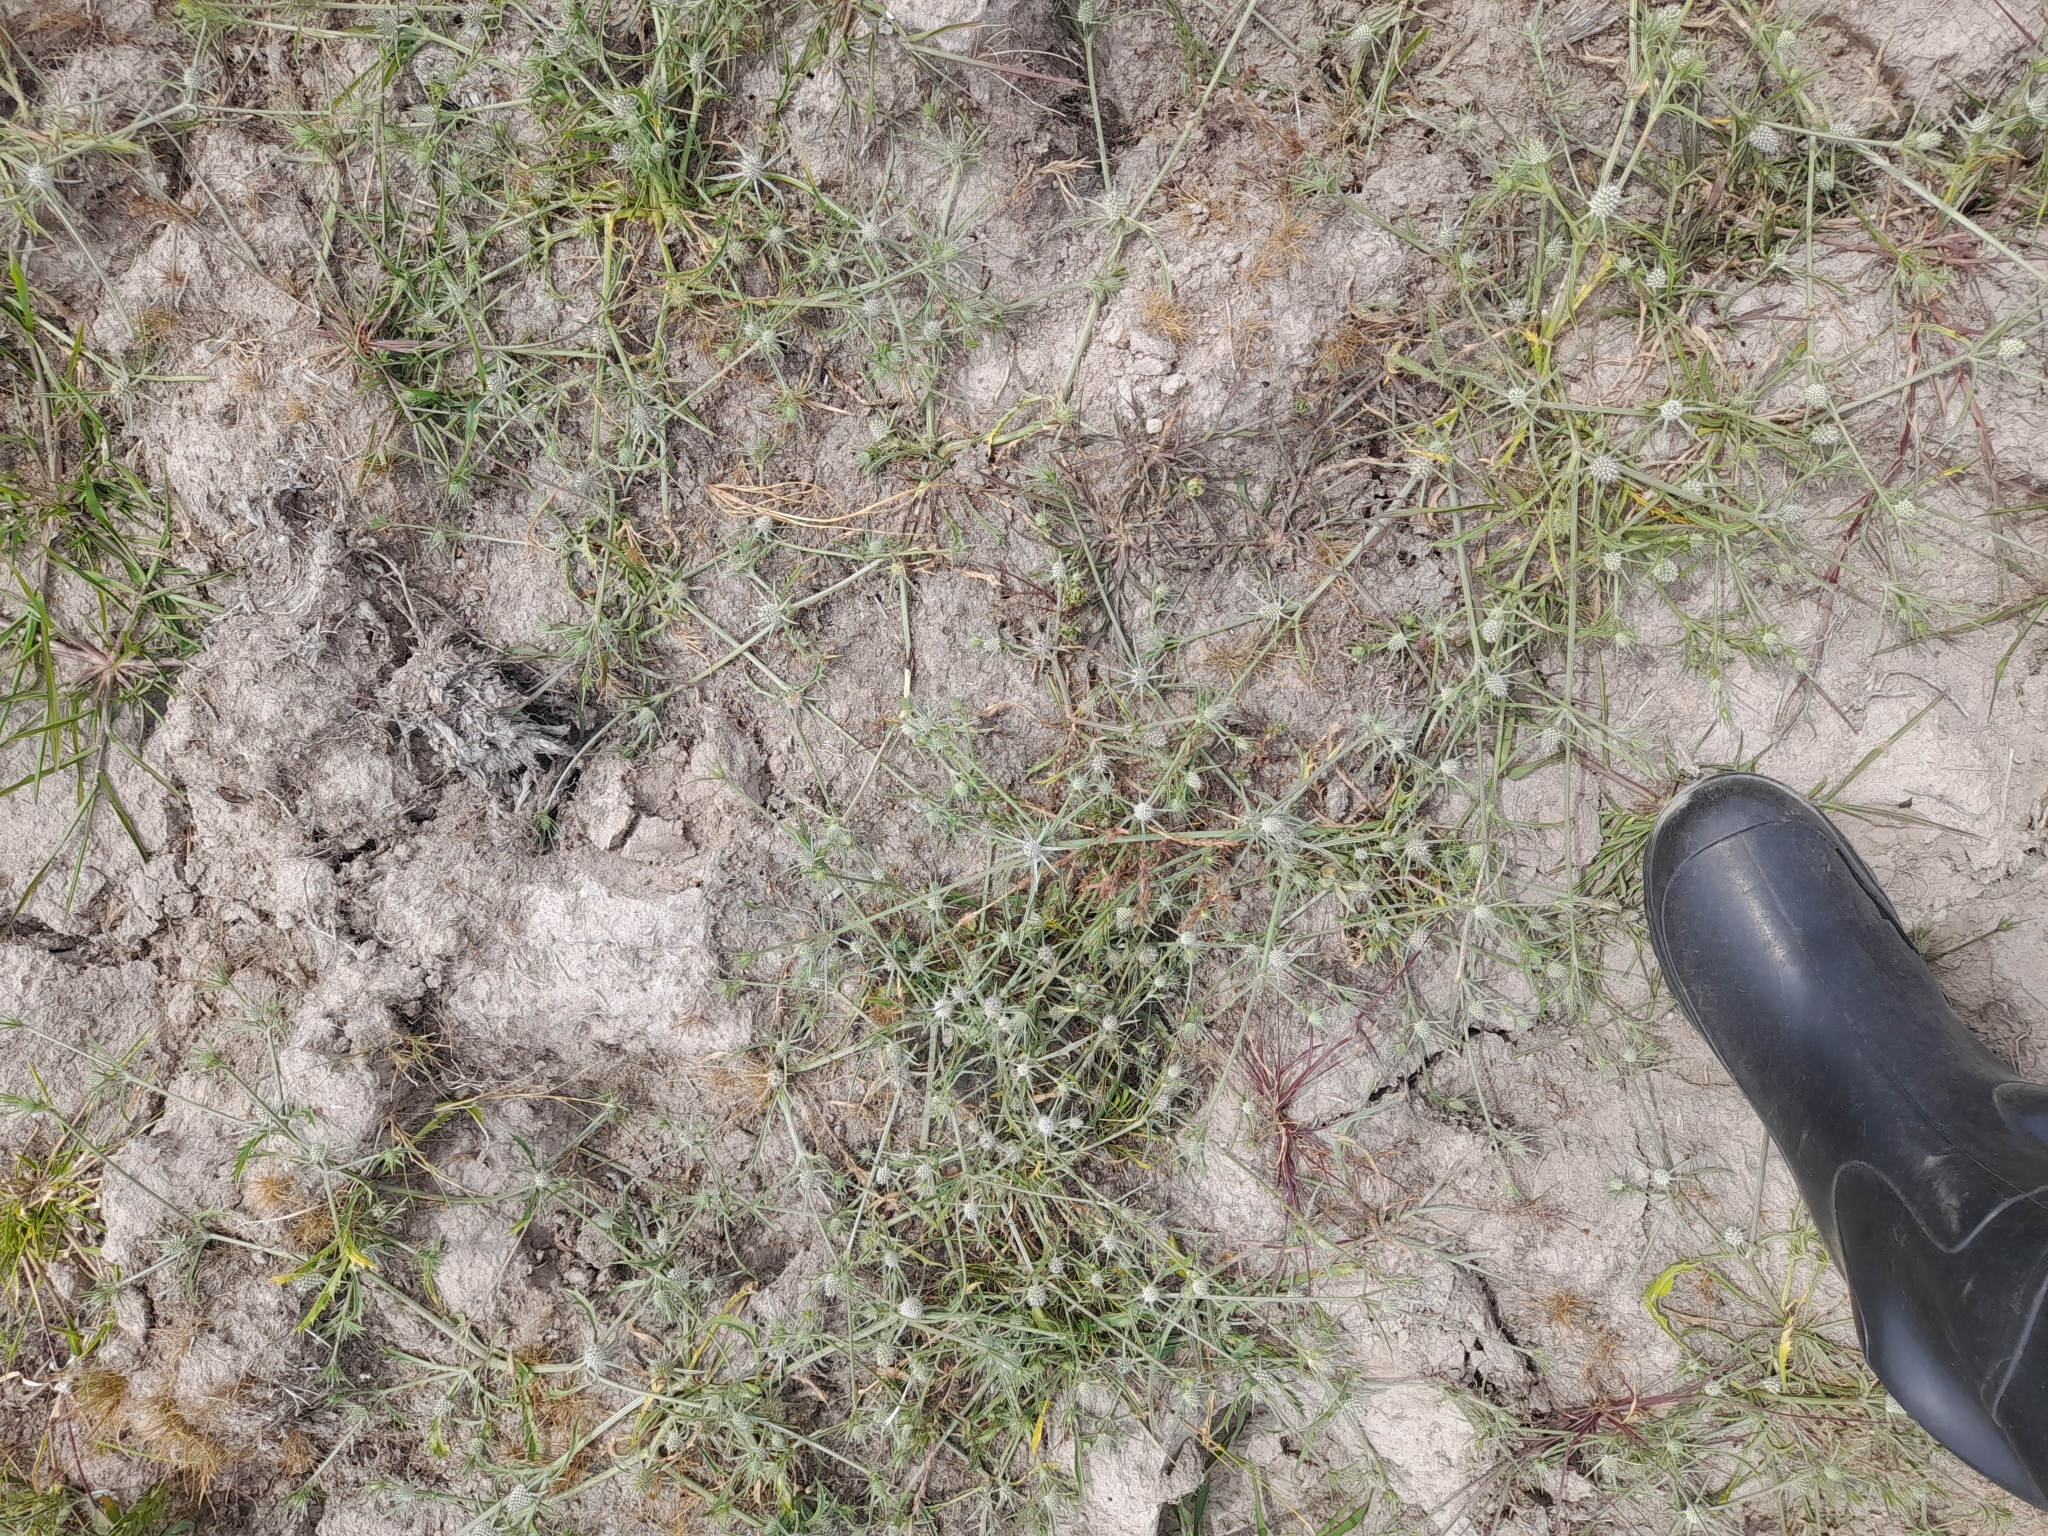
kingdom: Plantae
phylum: Tracheophyta
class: Magnoliopsida
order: Apiales
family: Apiaceae
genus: Eryngium
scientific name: Eryngium echinatum
